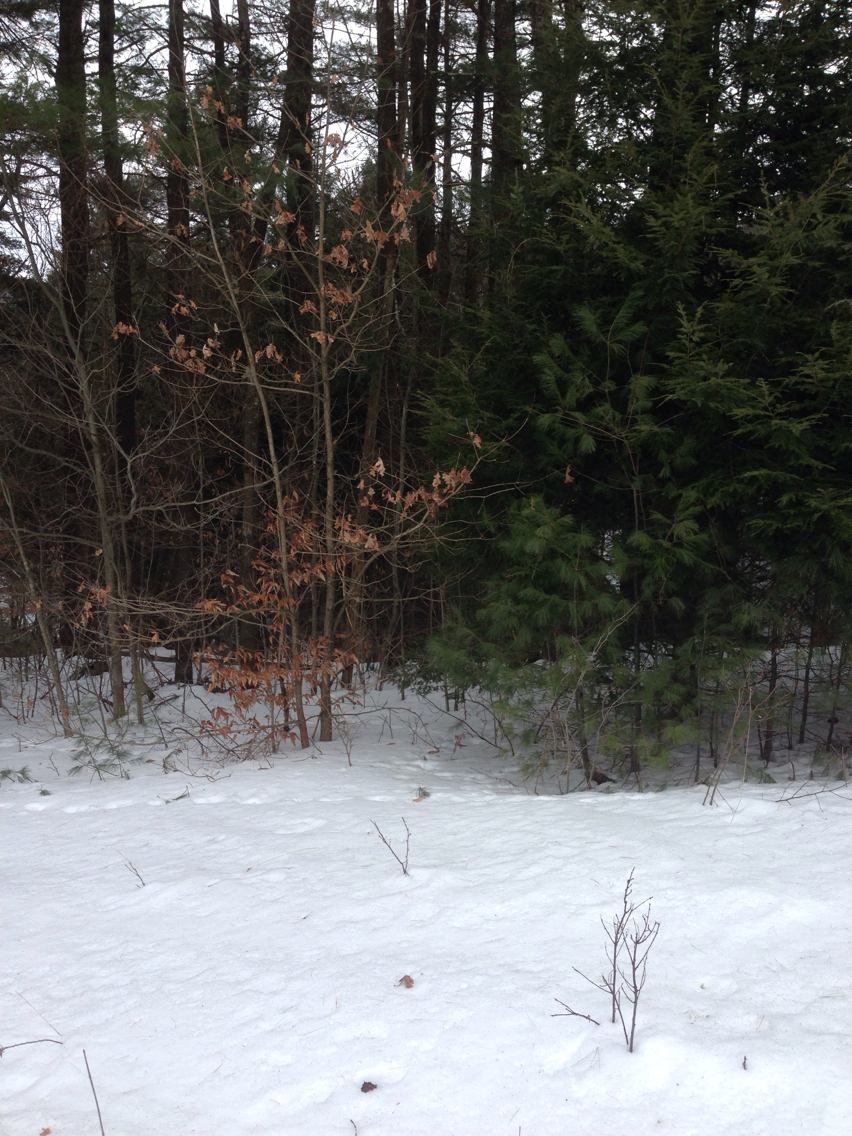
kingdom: Plantae
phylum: Tracheophyta
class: Magnoliopsida
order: Fagales
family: Fagaceae
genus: Quercus
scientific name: Quercus alba
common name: White oak
